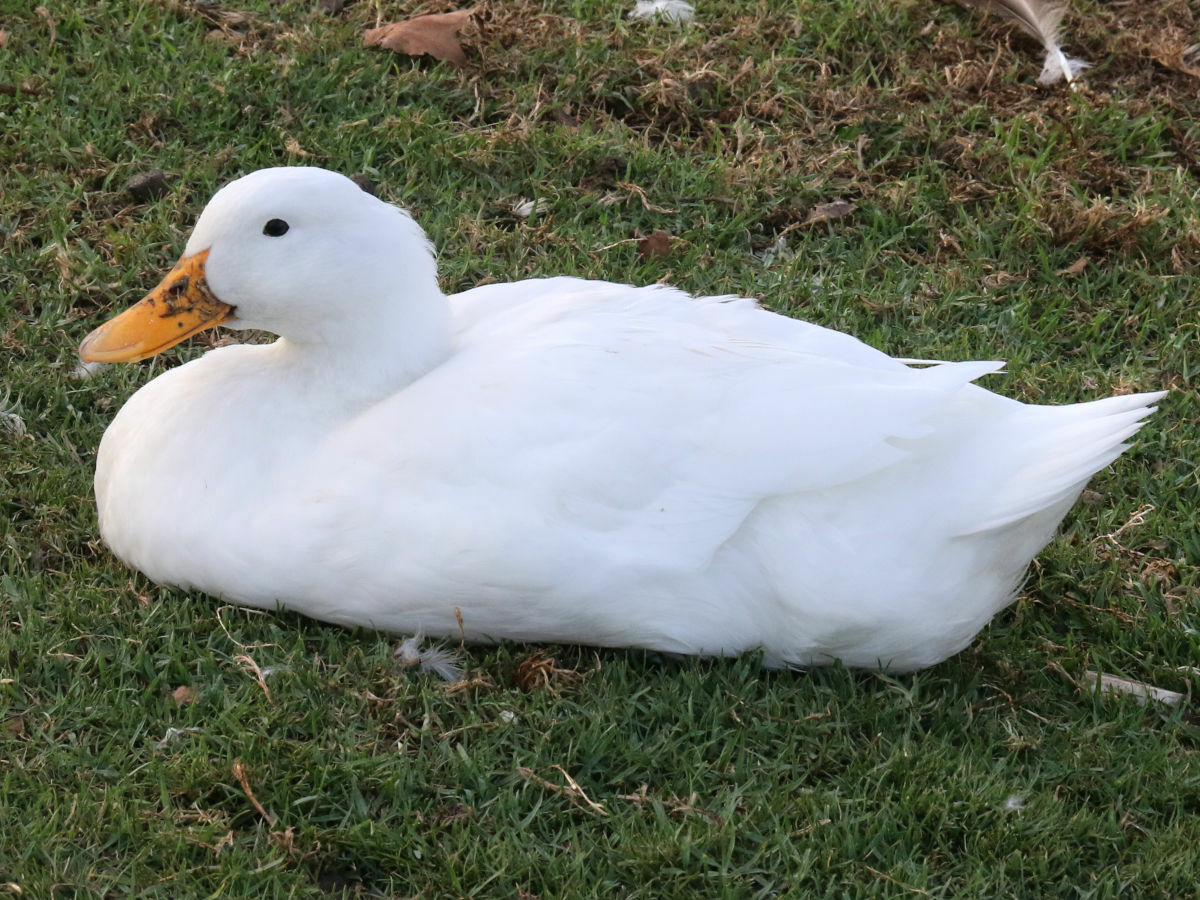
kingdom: Animalia
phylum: Chordata
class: Aves
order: Anseriformes
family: Anatidae
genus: Anas
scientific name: Anas platyrhynchos
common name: Mallard
